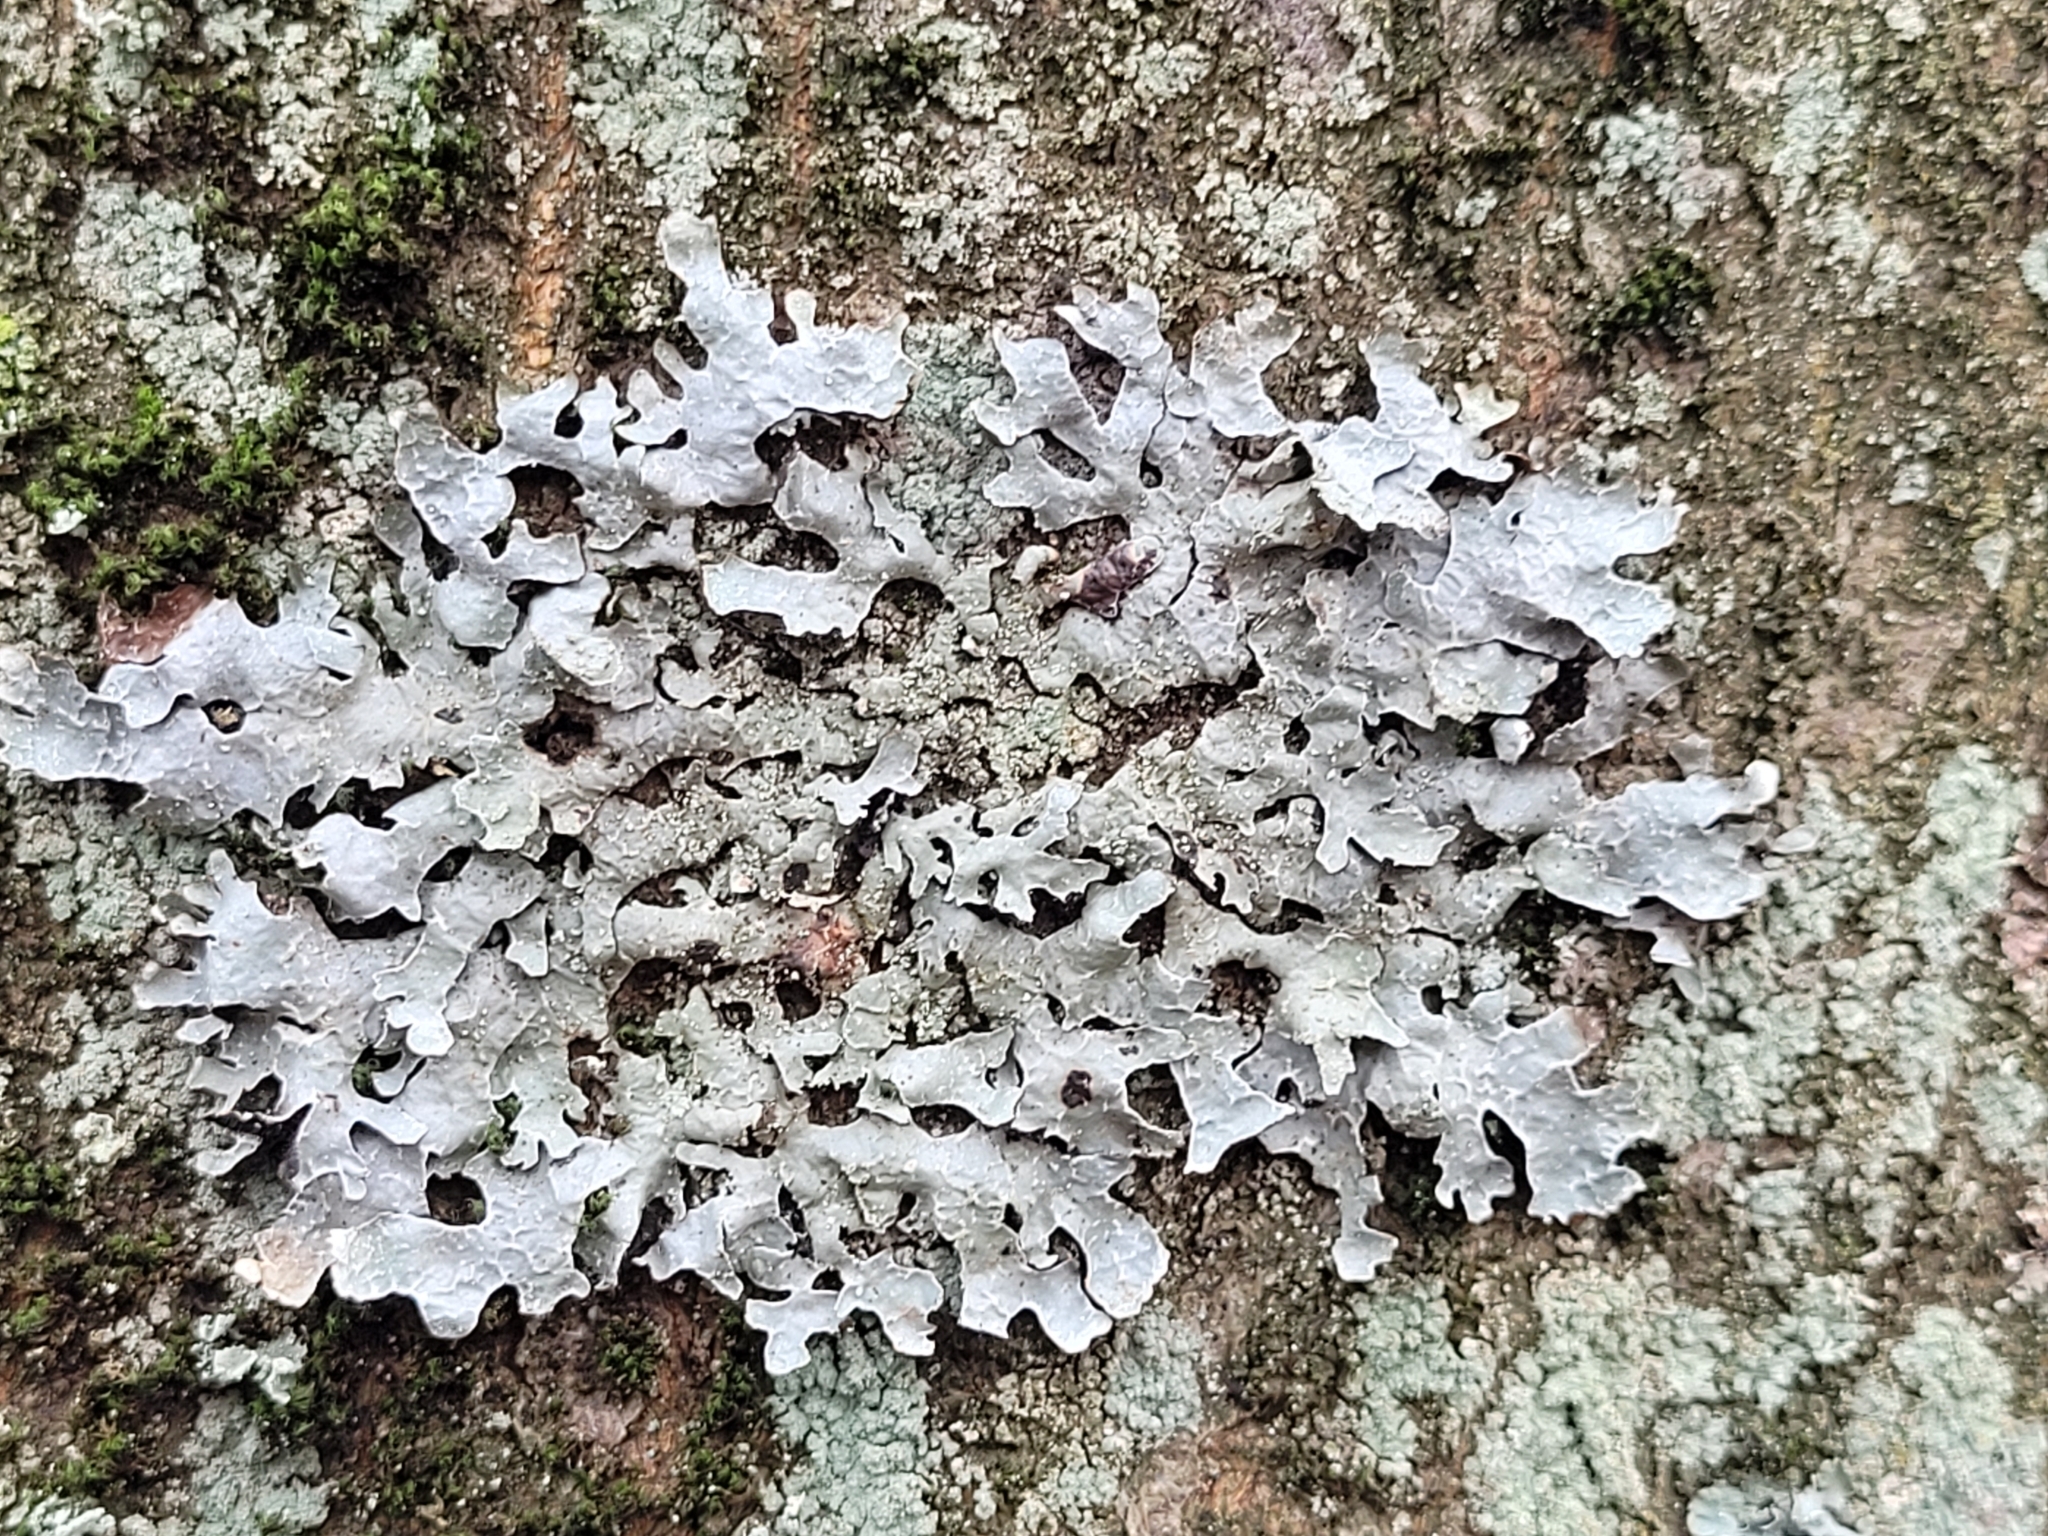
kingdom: Fungi
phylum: Ascomycota
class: Lecanoromycetes
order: Lecanorales
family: Parmeliaceae
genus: Parmelia
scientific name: Parmelia sulcata
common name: Netted shield lichen
